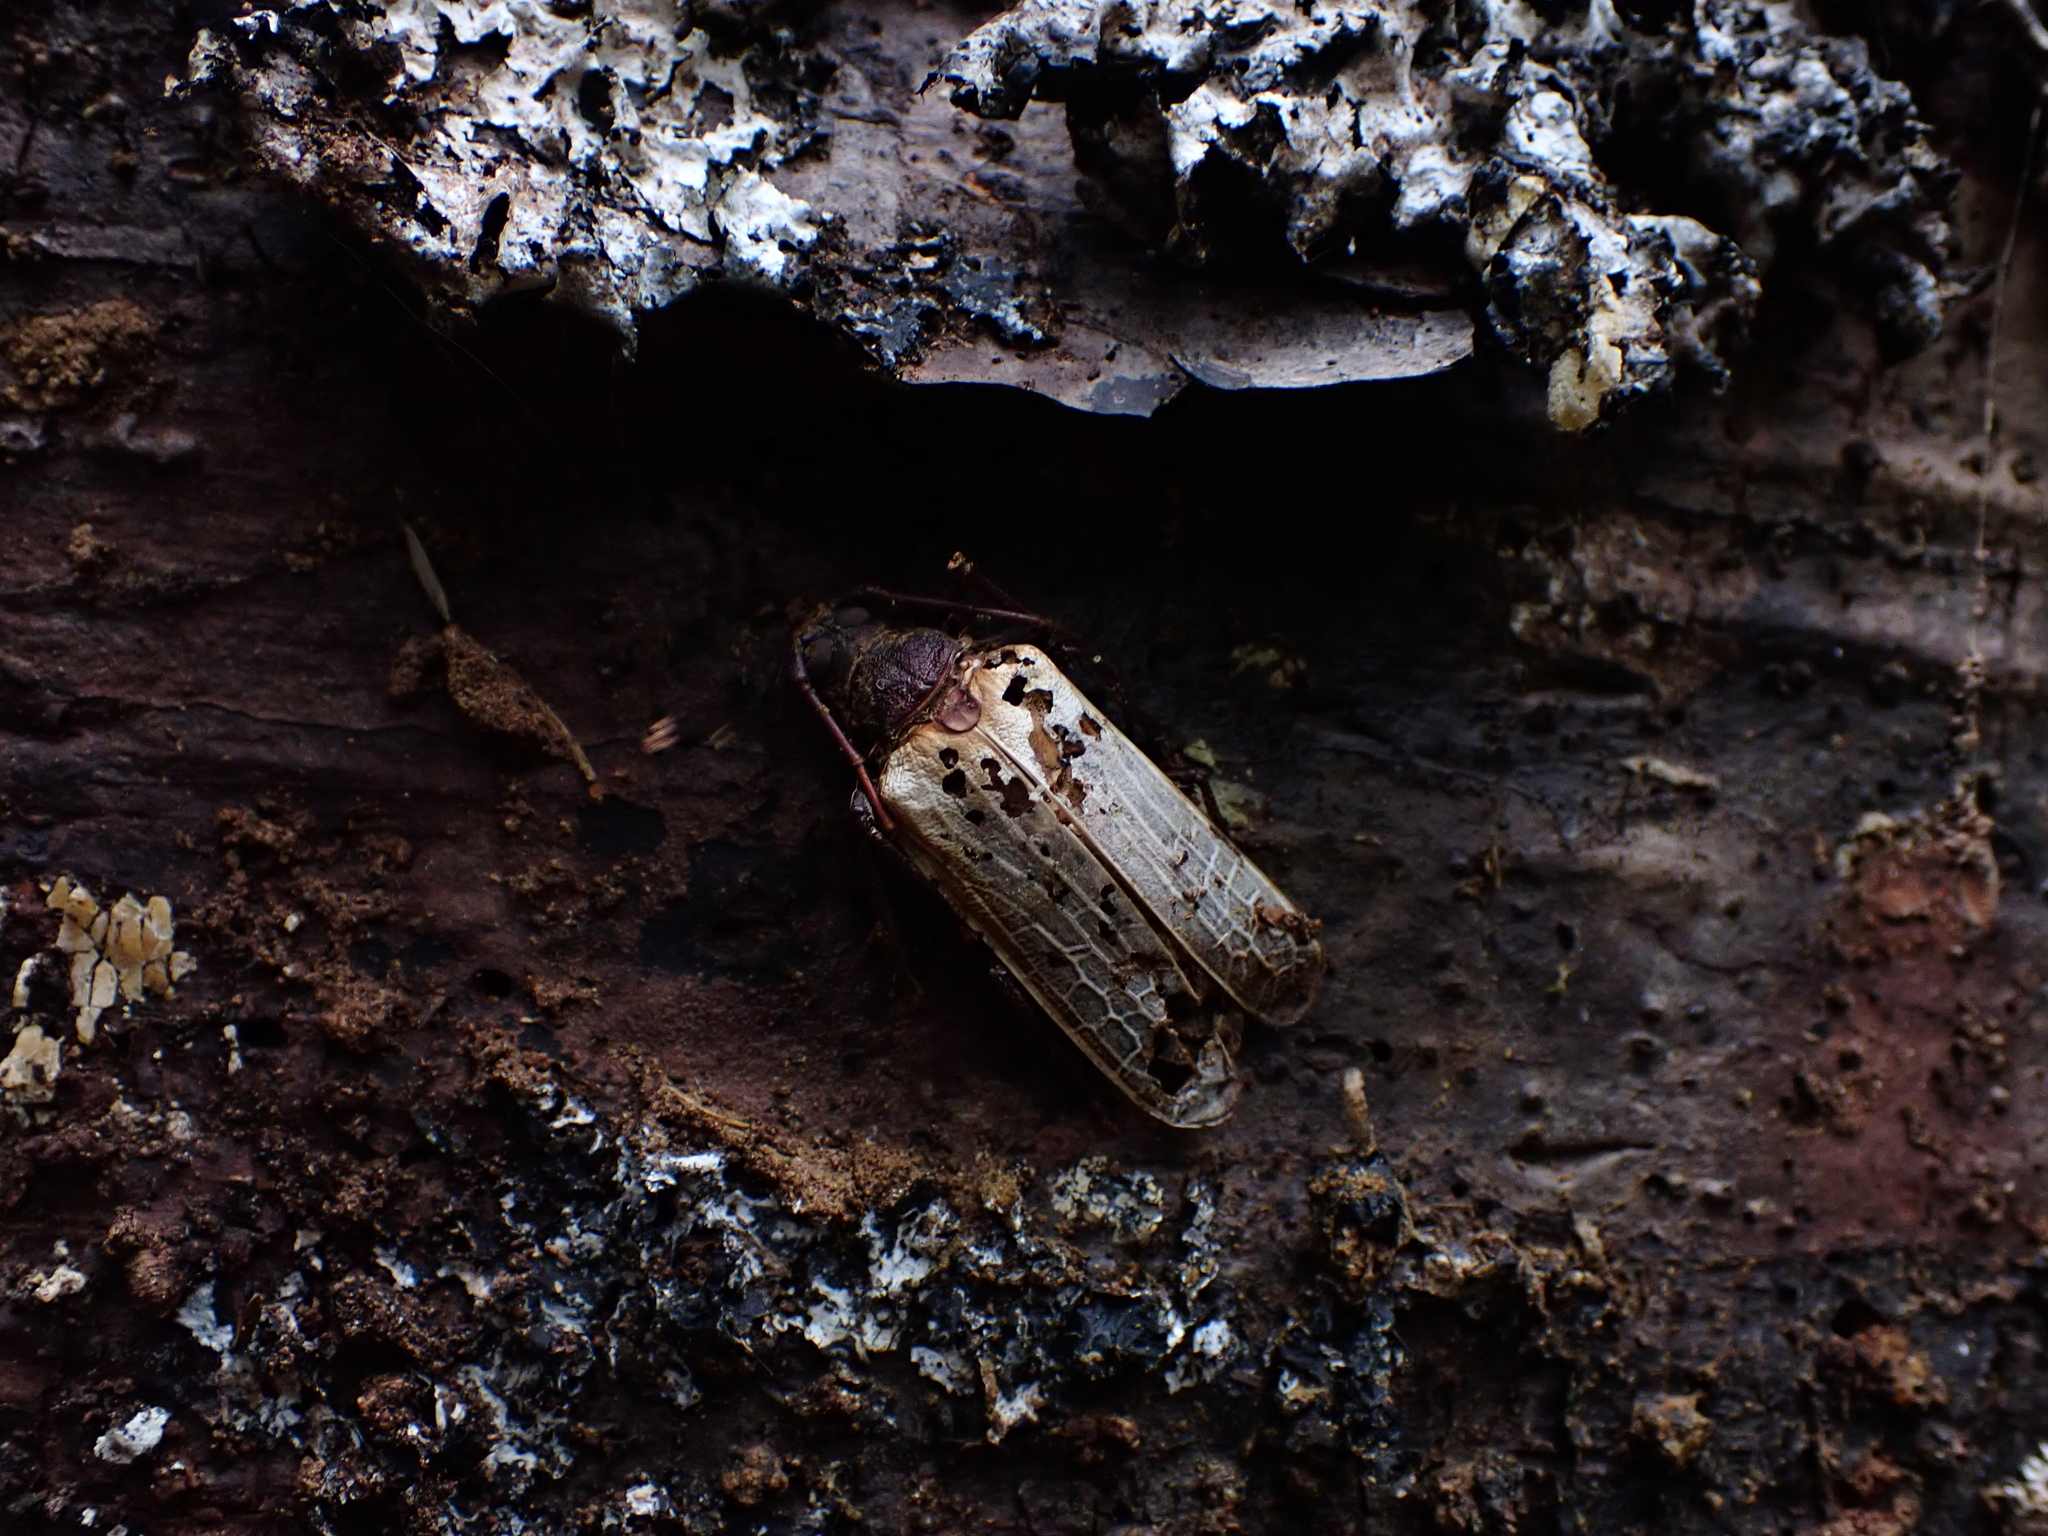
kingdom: Animalia
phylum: Arthropoda
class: Insecta
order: Coleoptera
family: Cerambycidae
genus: Prionoplus
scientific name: Prionoplus reticularis
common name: Huhu beetle
